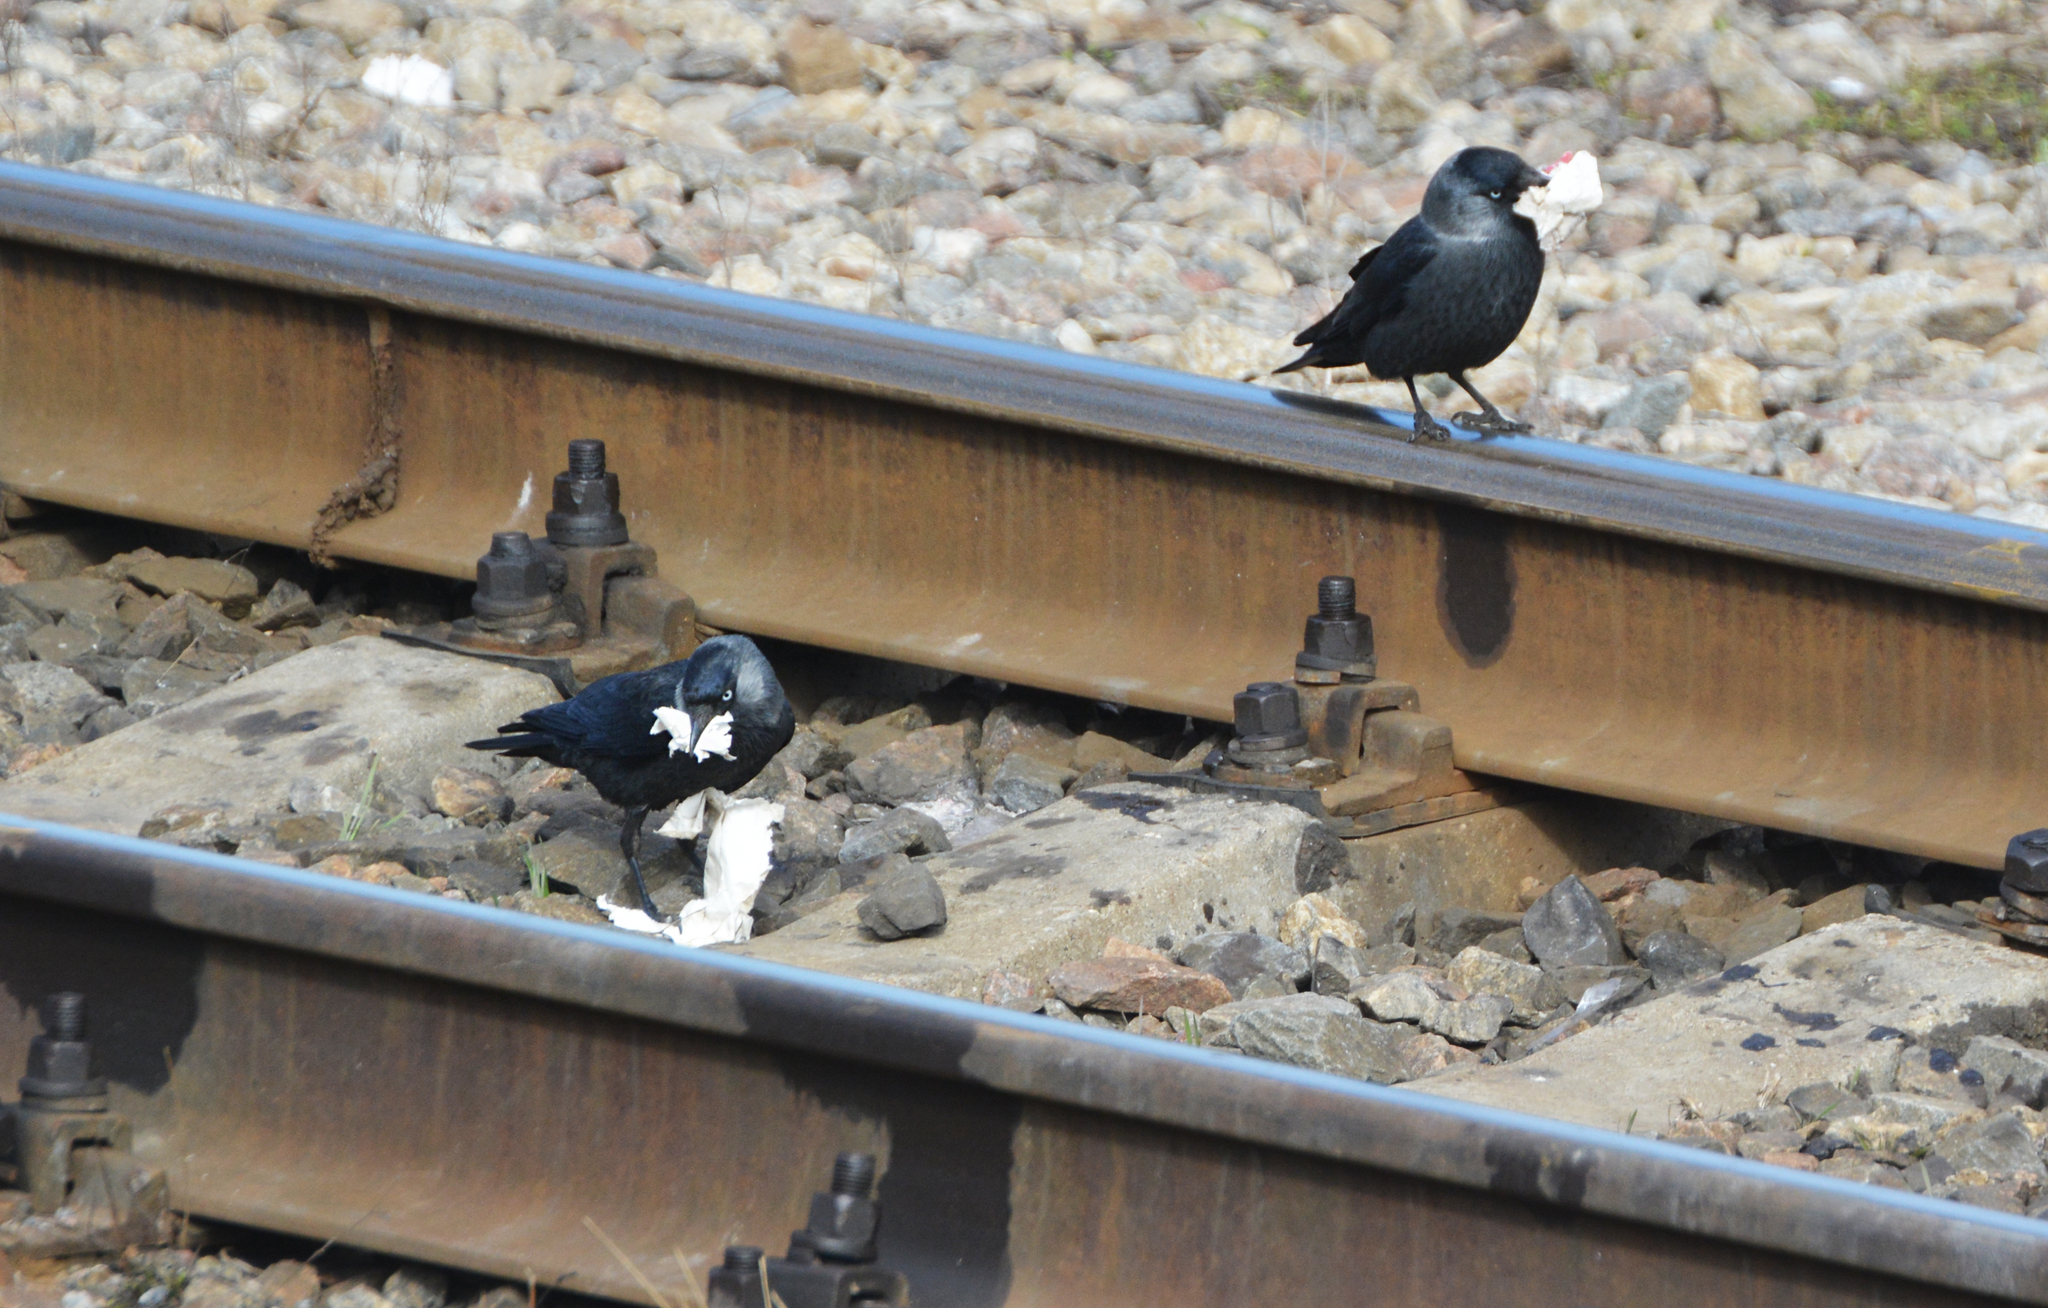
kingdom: Animalia
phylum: Chordata
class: Aves
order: Passeriformes
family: Corvidae
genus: Coloeus
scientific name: Coloeus monedula
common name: Western jackdaw
